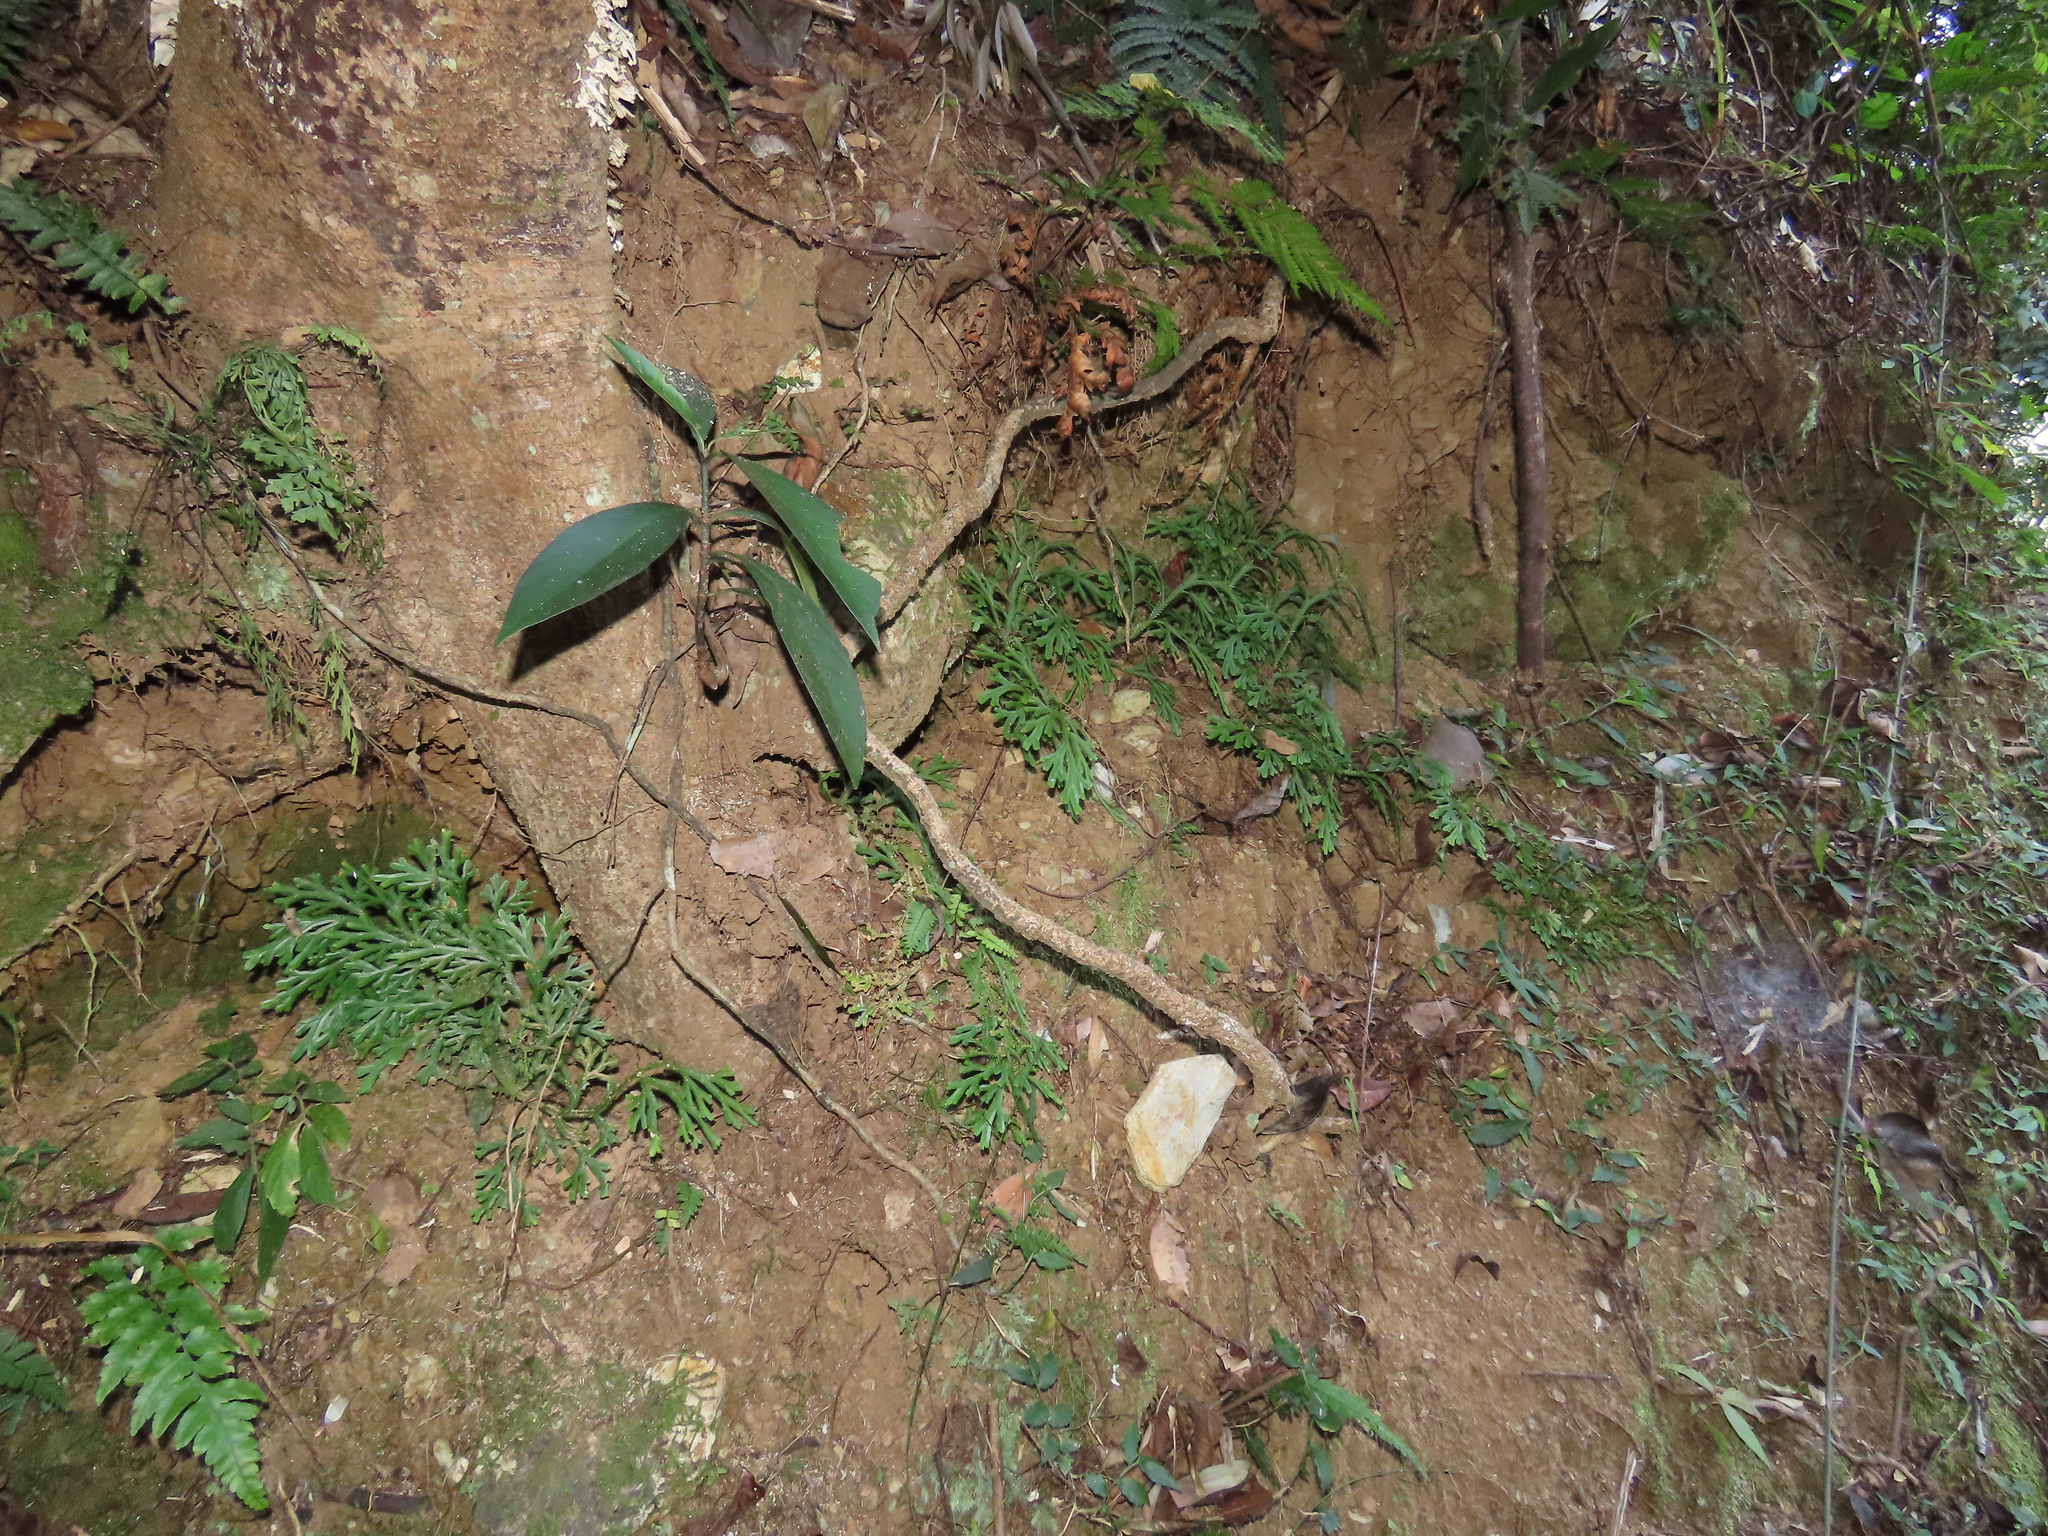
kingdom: Plantae
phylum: Tracheophyta
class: Lycopodiopsida
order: Selaginellales
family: Selaginellaceae
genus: Selaginella
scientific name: Selaginella doederleinii
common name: Greater selaginella
